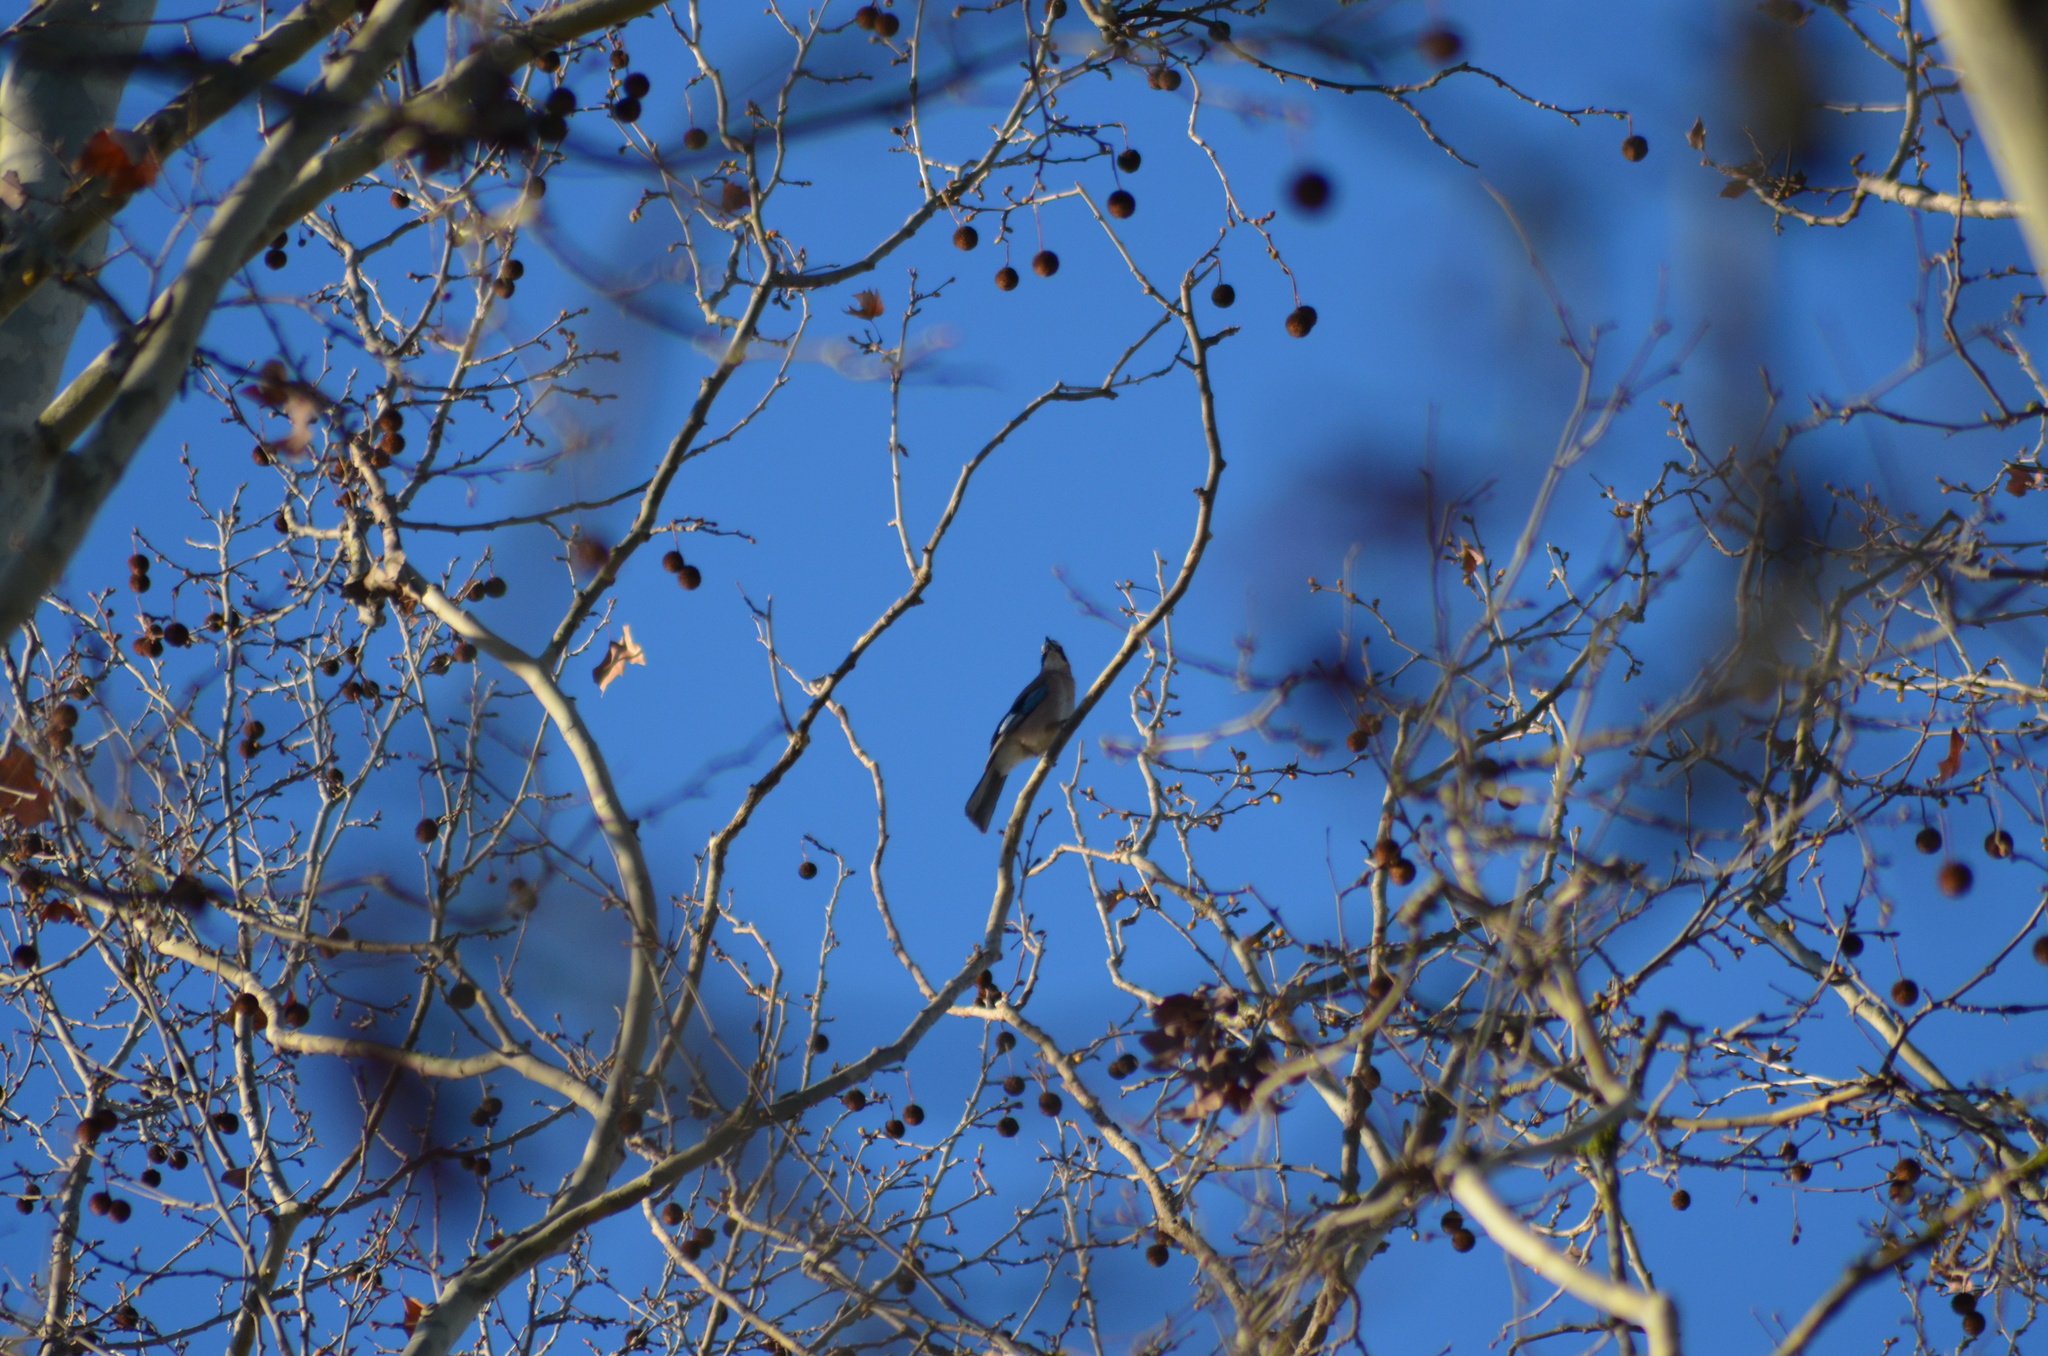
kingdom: Animalia
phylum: Chordata
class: Aves
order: Passeriformes
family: Corvidae
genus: Garrulus
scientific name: Garrulus glandarius
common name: Eurasian jay
